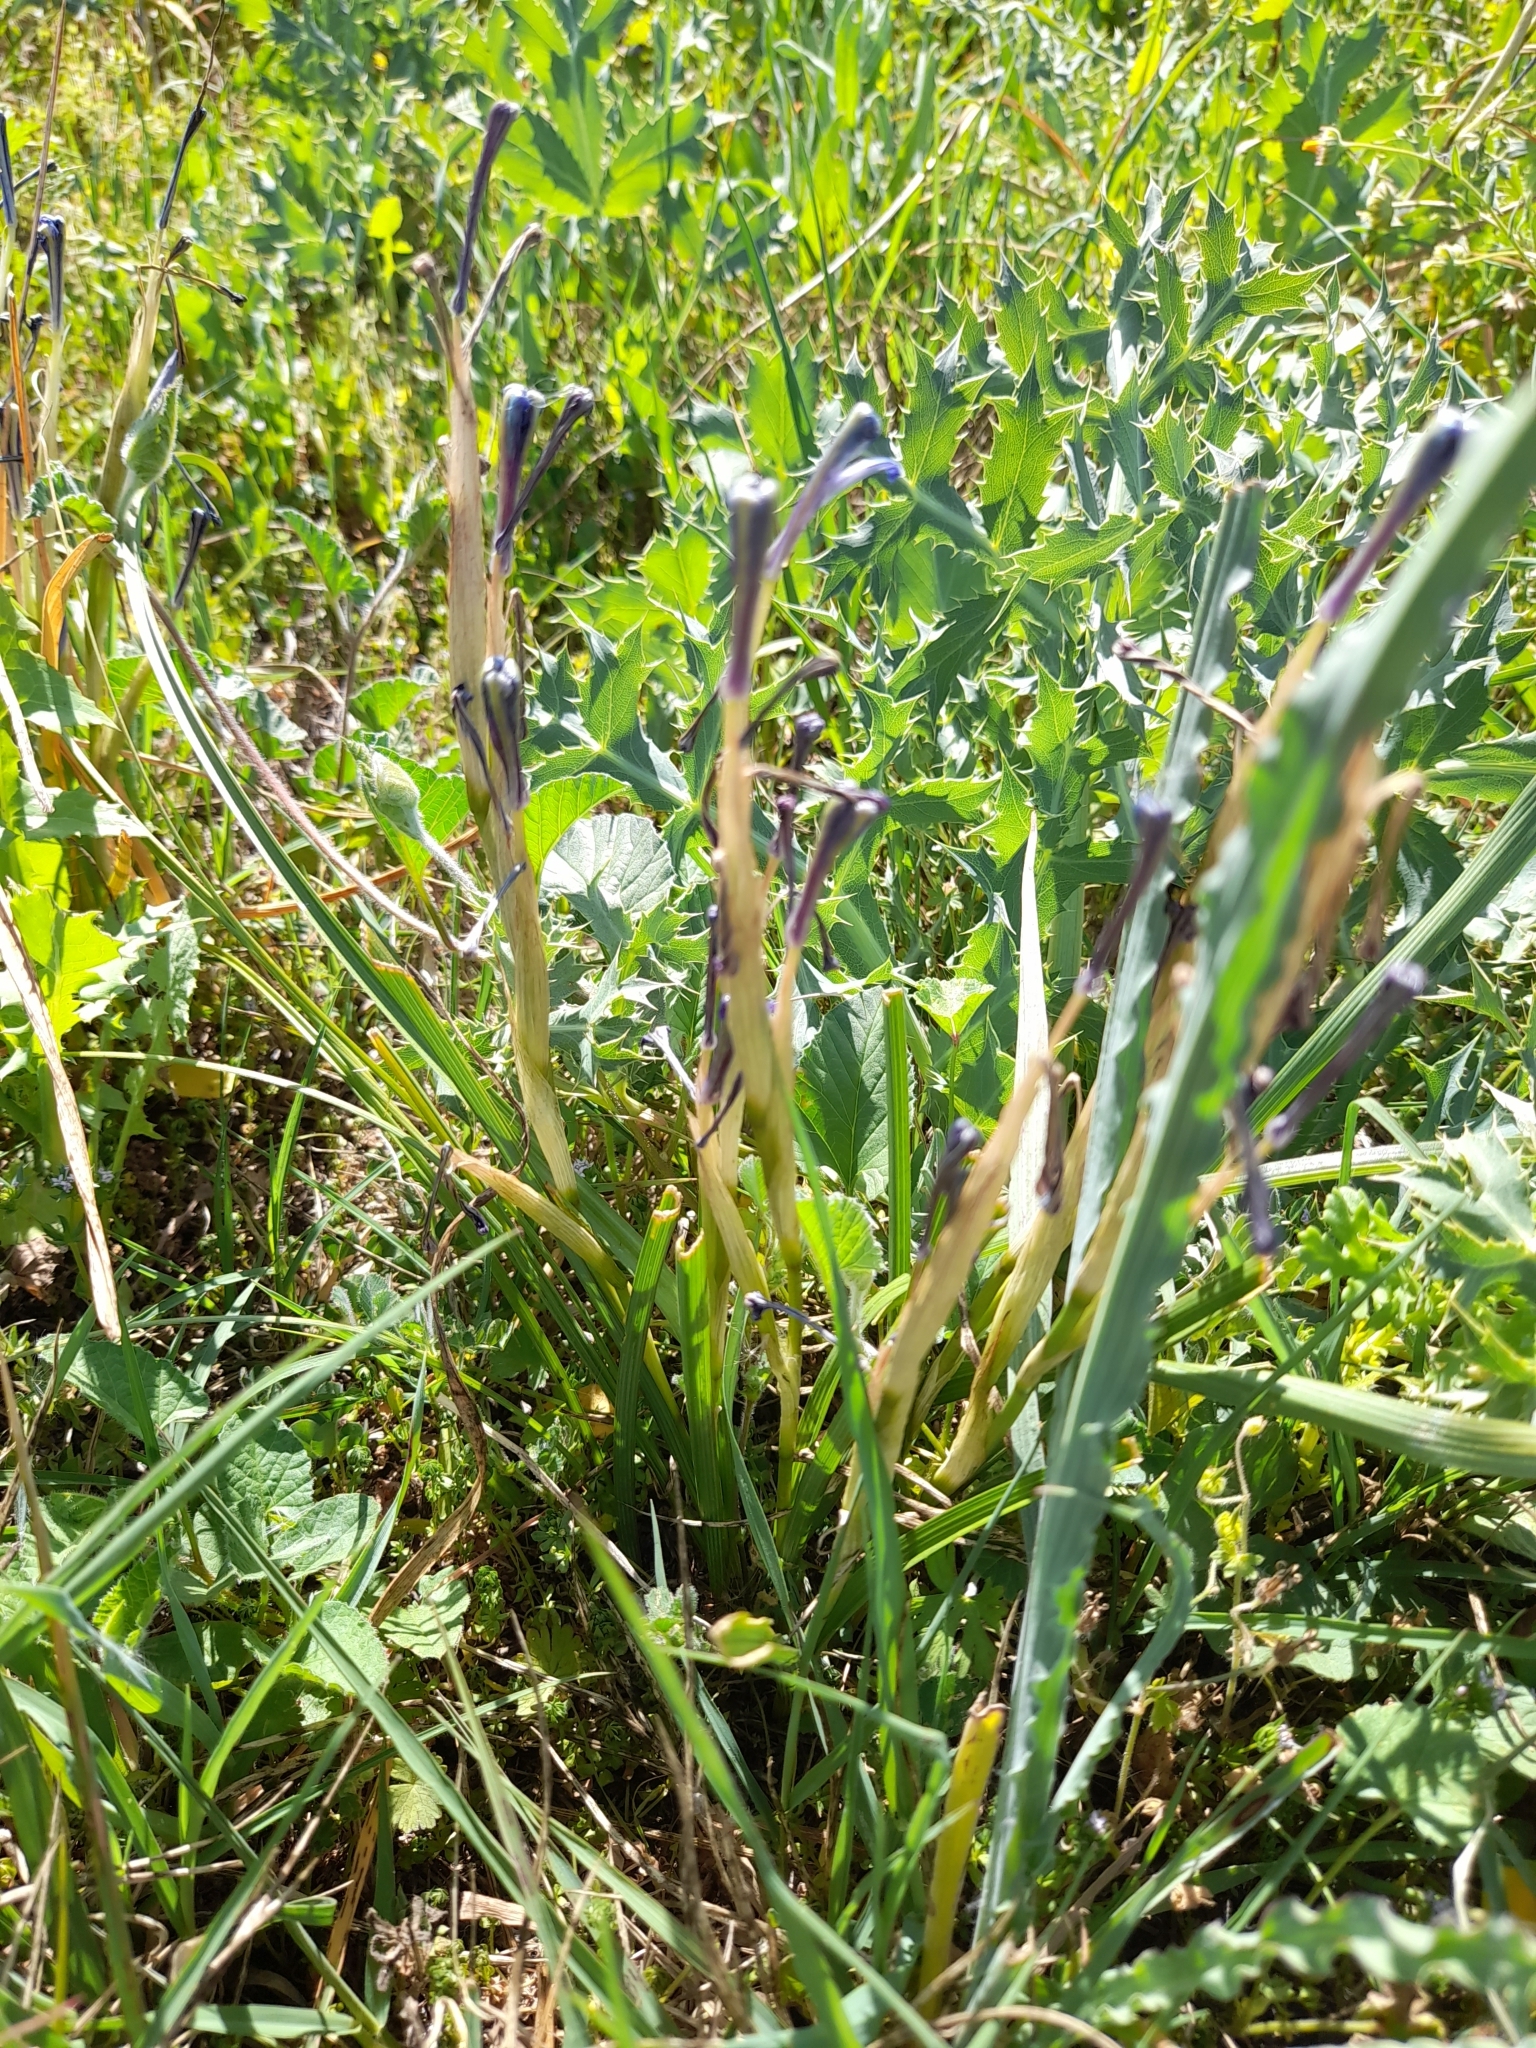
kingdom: Plantae
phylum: Tracheophyta
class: Liliopsida
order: Asparagales
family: Iridaceae
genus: Moraea
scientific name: Moraea sisyrinchium
